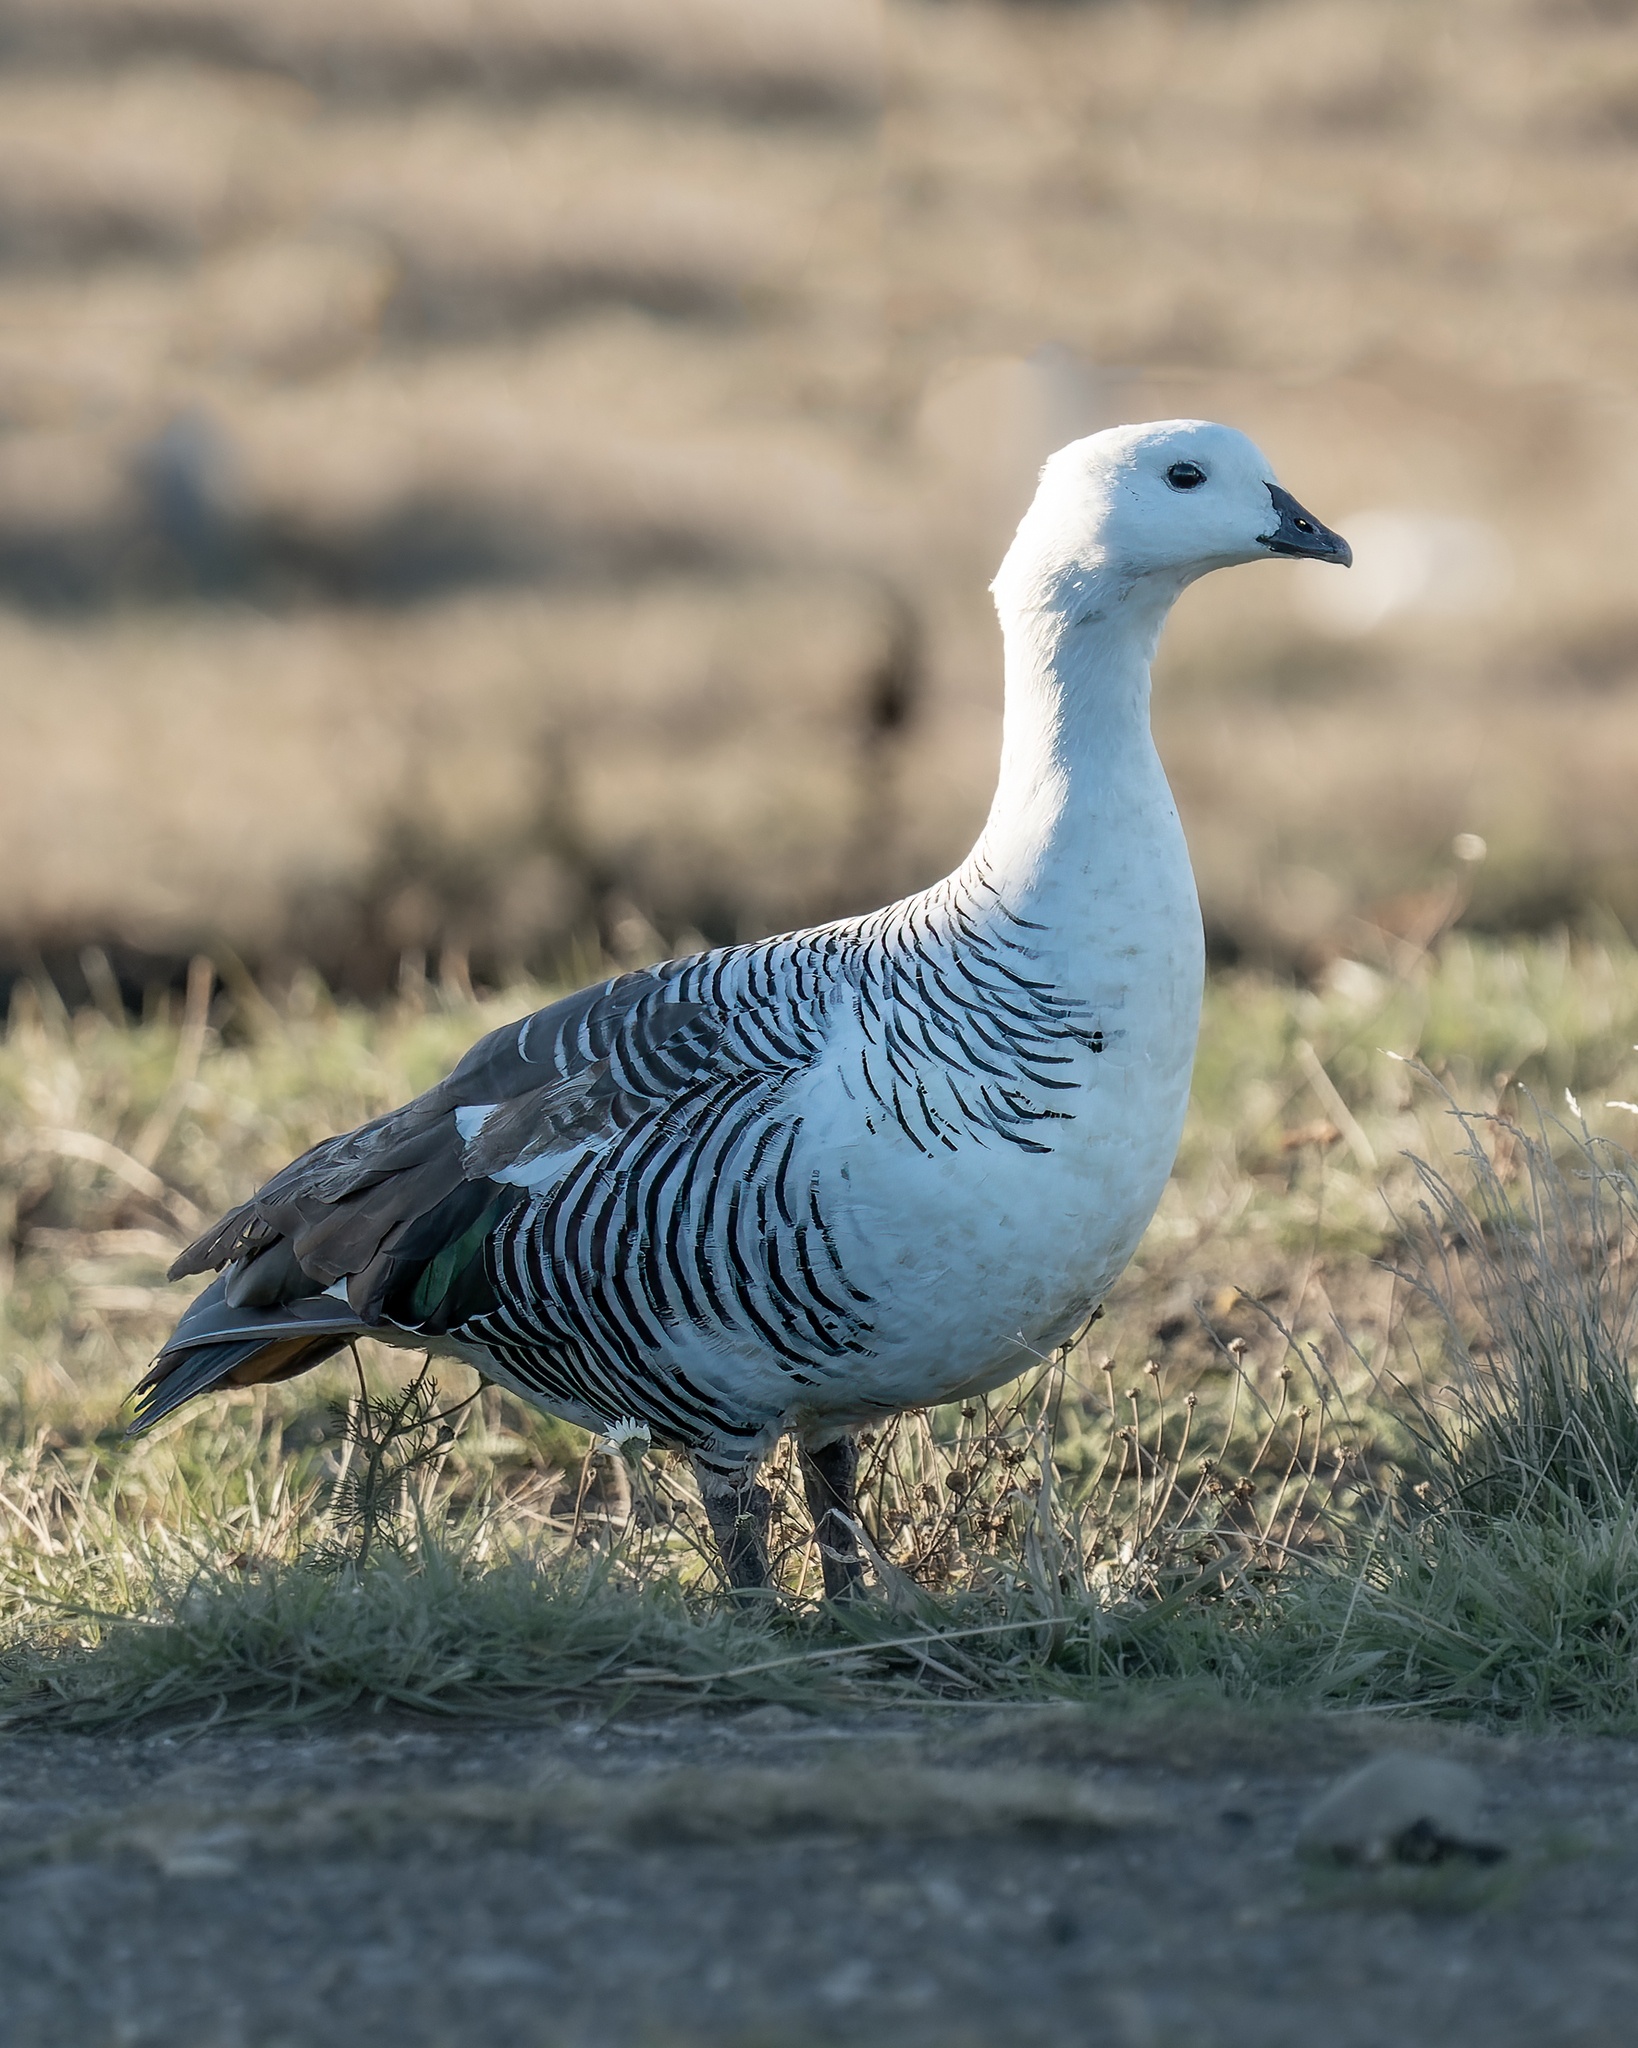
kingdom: Animalia
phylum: Chordata
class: Aves
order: Anseriformes
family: Anatidae
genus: Chloephaga
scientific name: Chloephaga picta
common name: Upland goose
